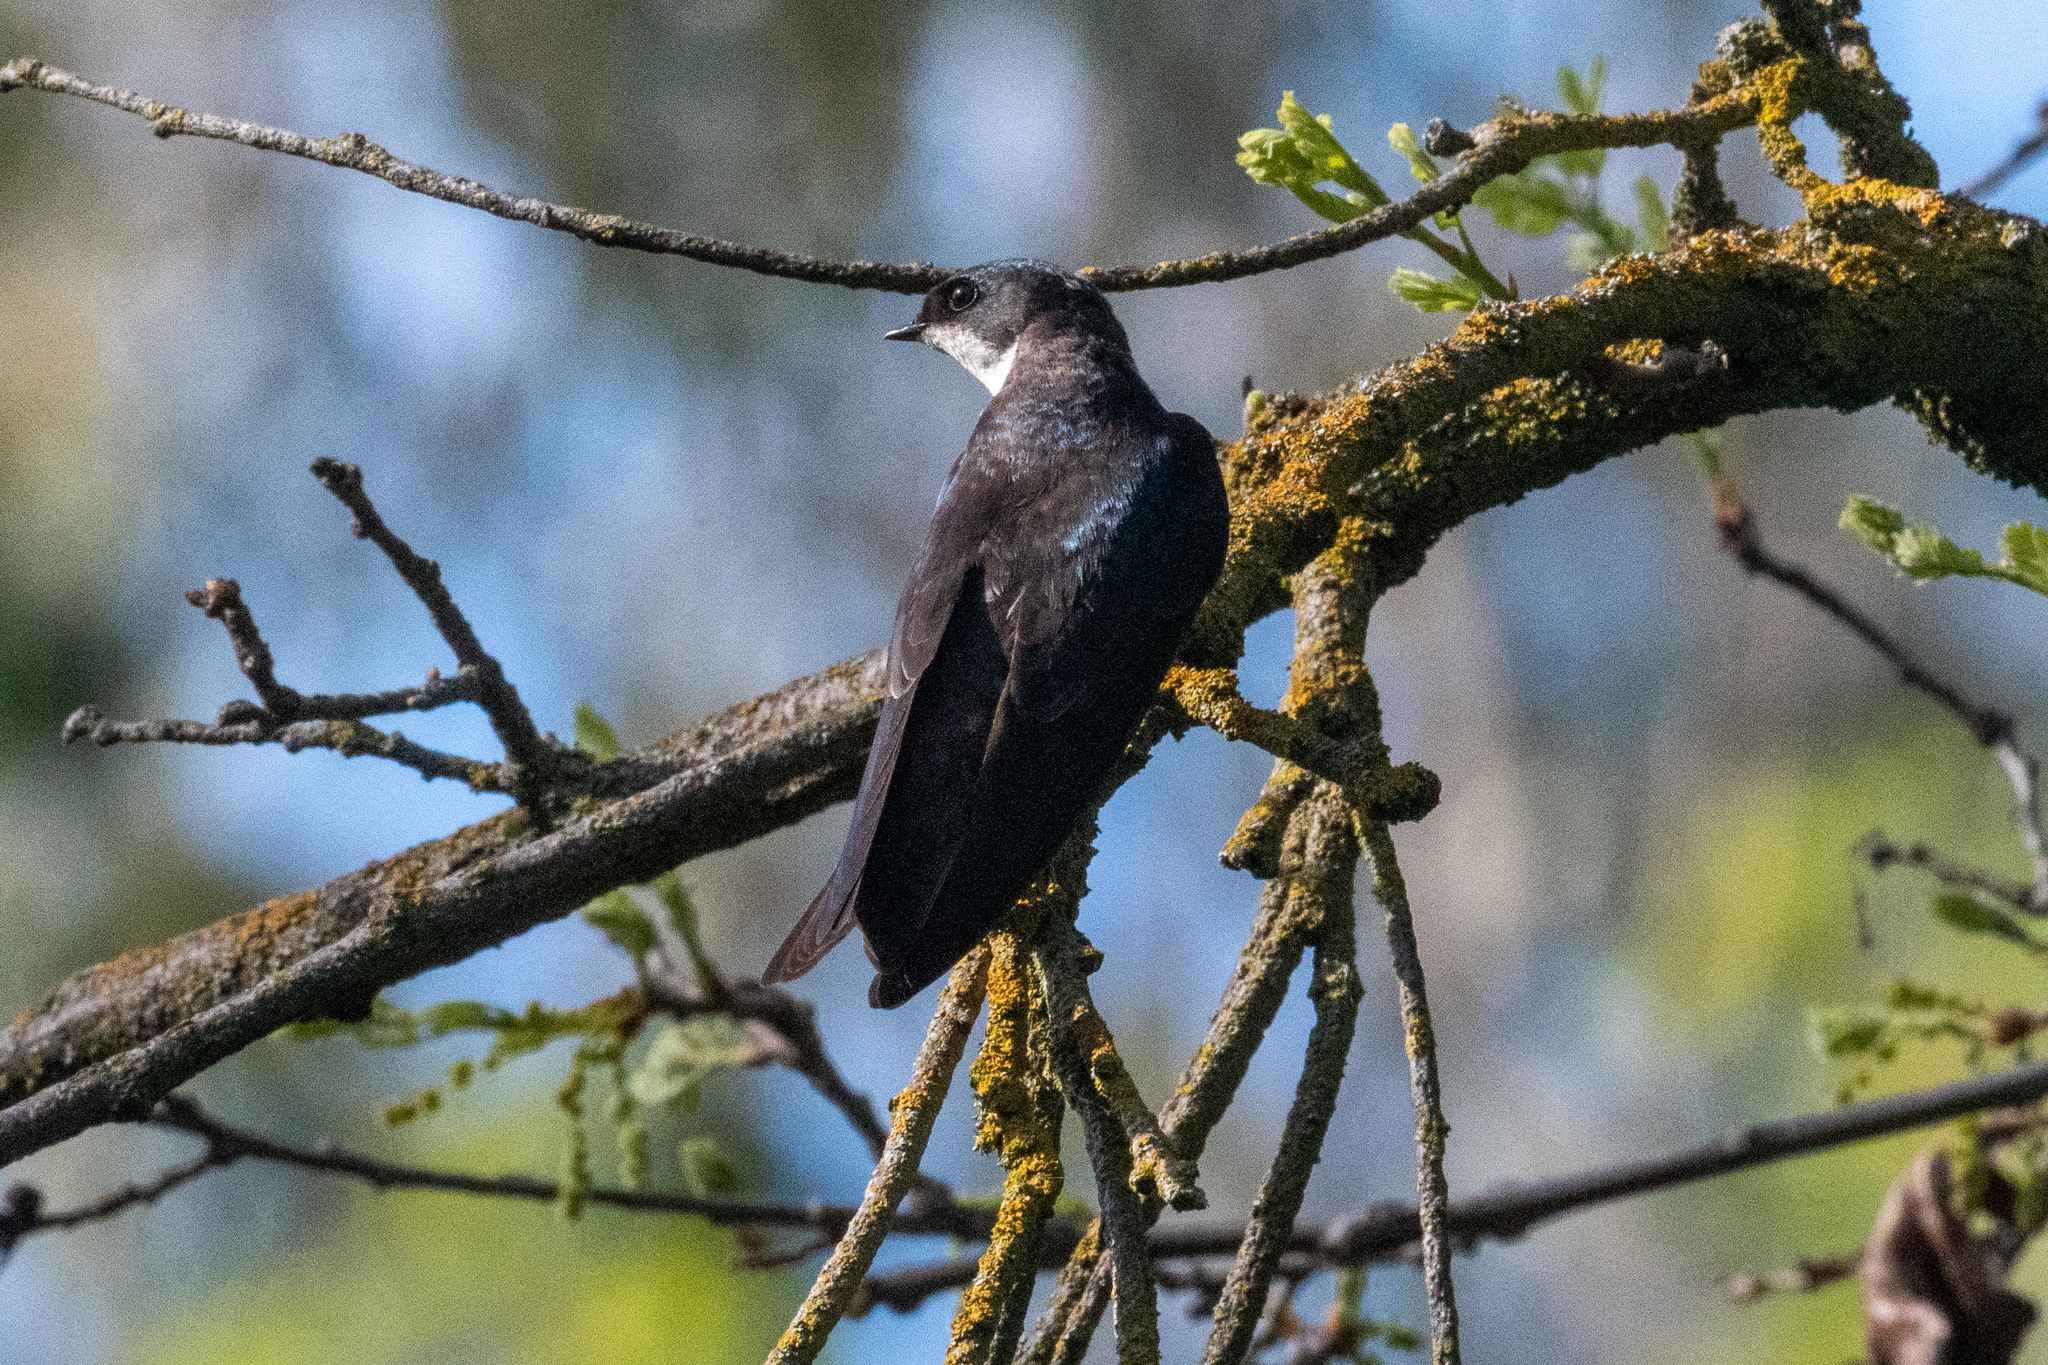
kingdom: Animalia
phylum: Chordata
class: Aves
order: Passeriformes
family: Hirundinidae
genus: Tachycineta
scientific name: Tachycineta bicolor
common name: Tree swallow
